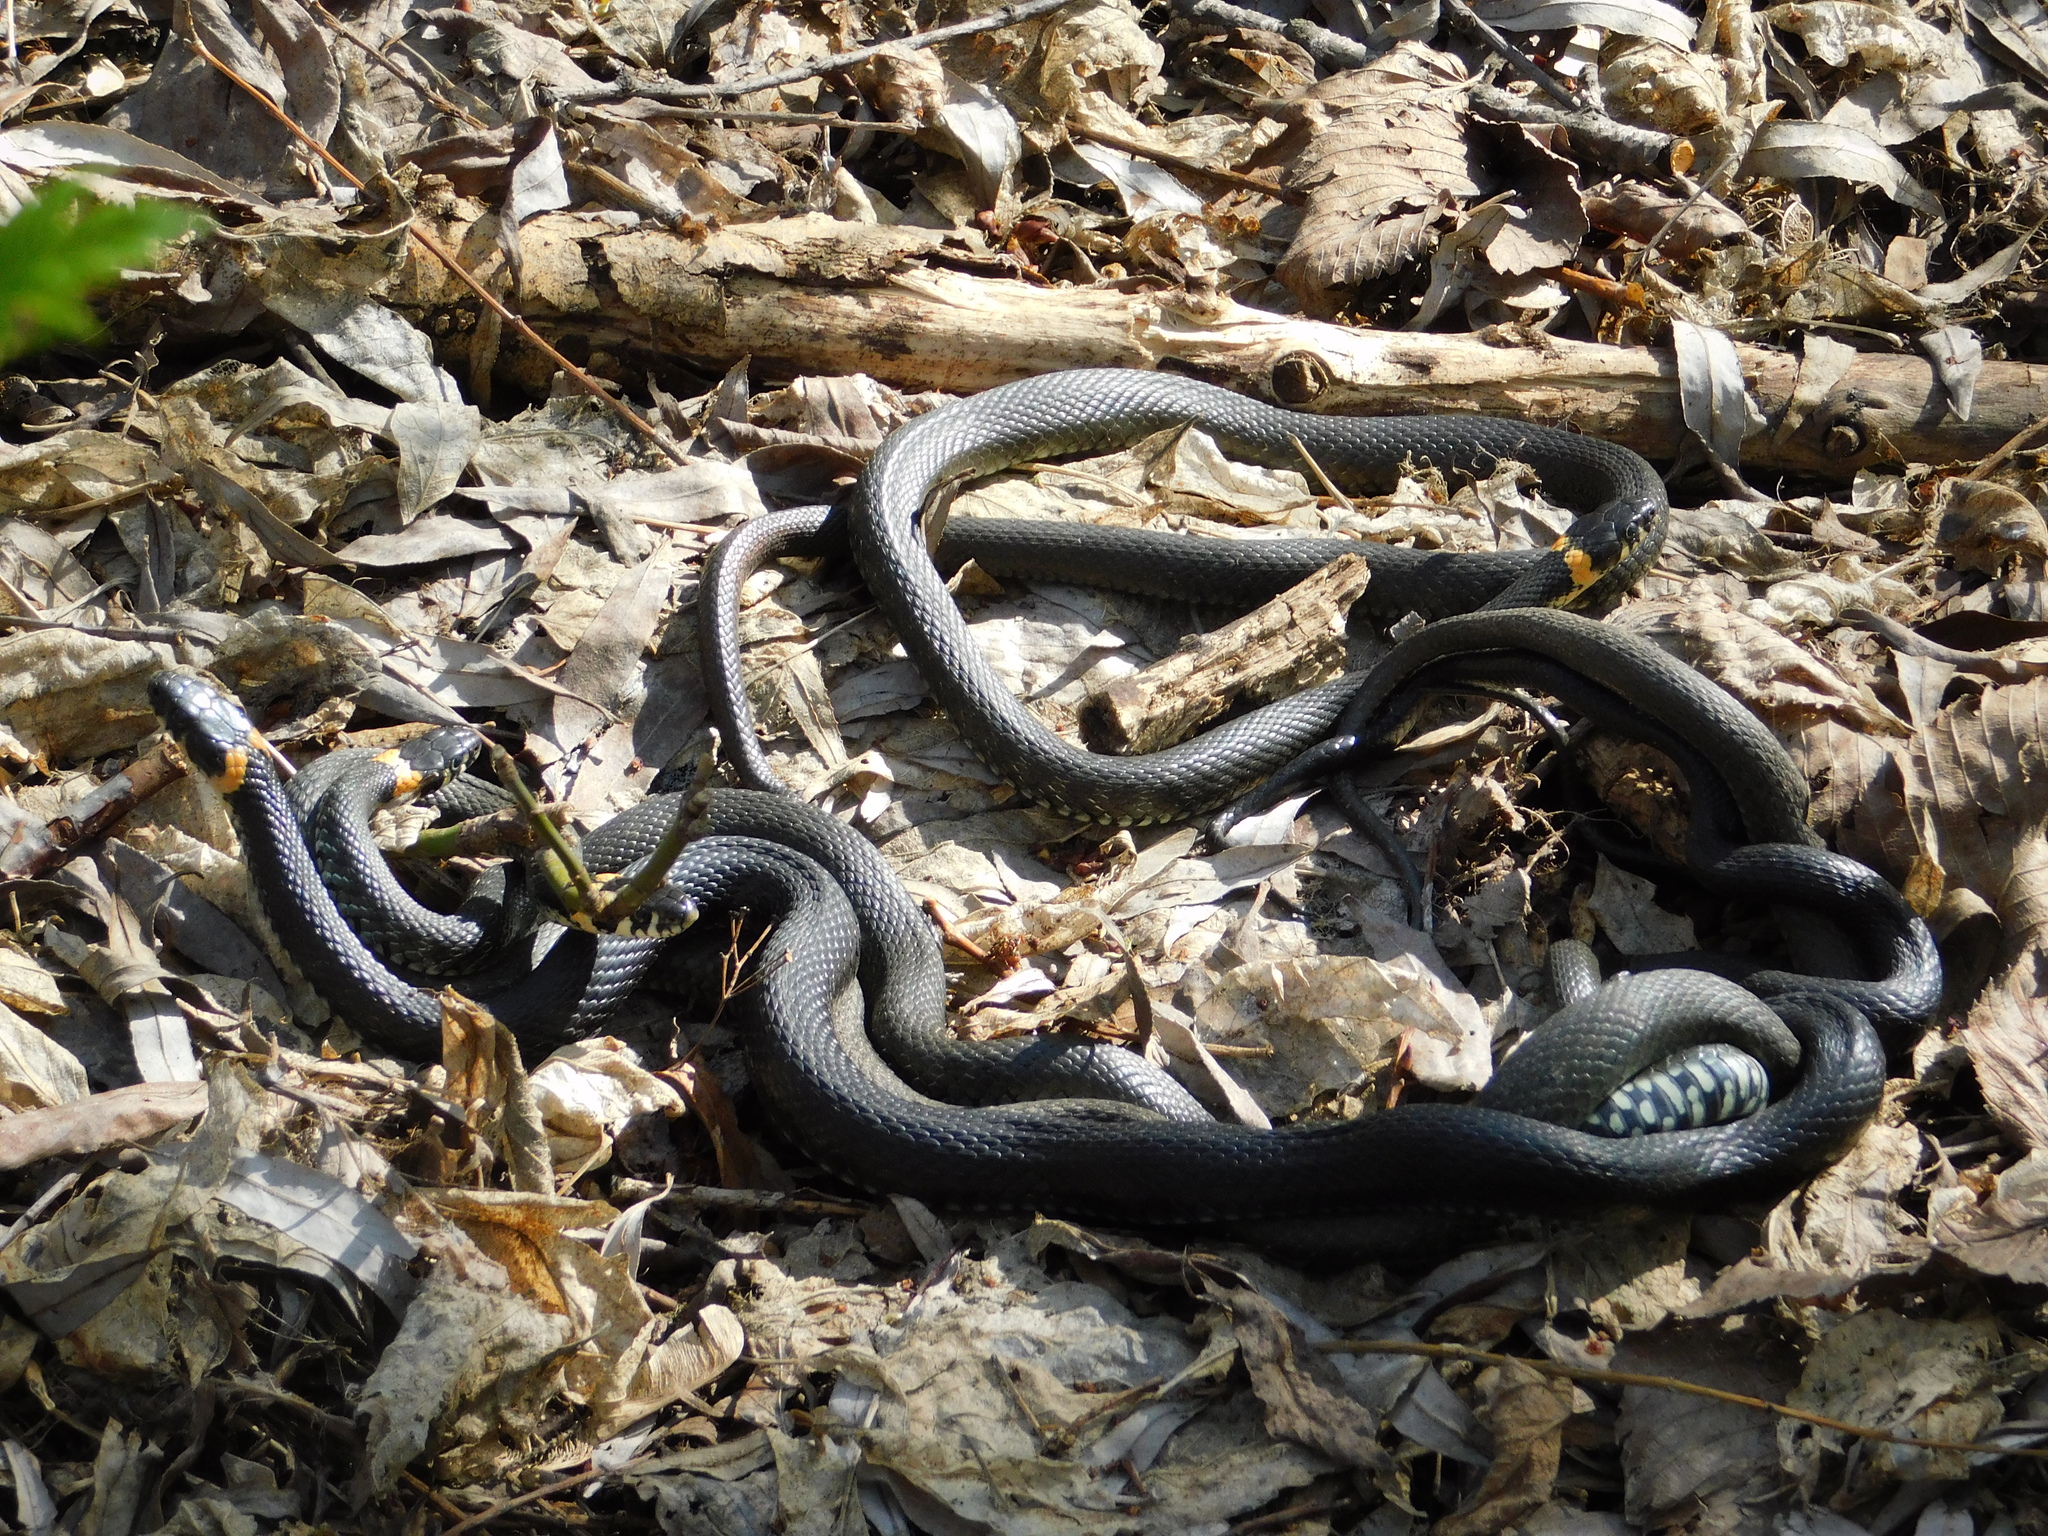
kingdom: Animalia
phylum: Chordata
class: Squamata
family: Colubridae
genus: Natrix
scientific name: Natrix natrix
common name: Grass snake
